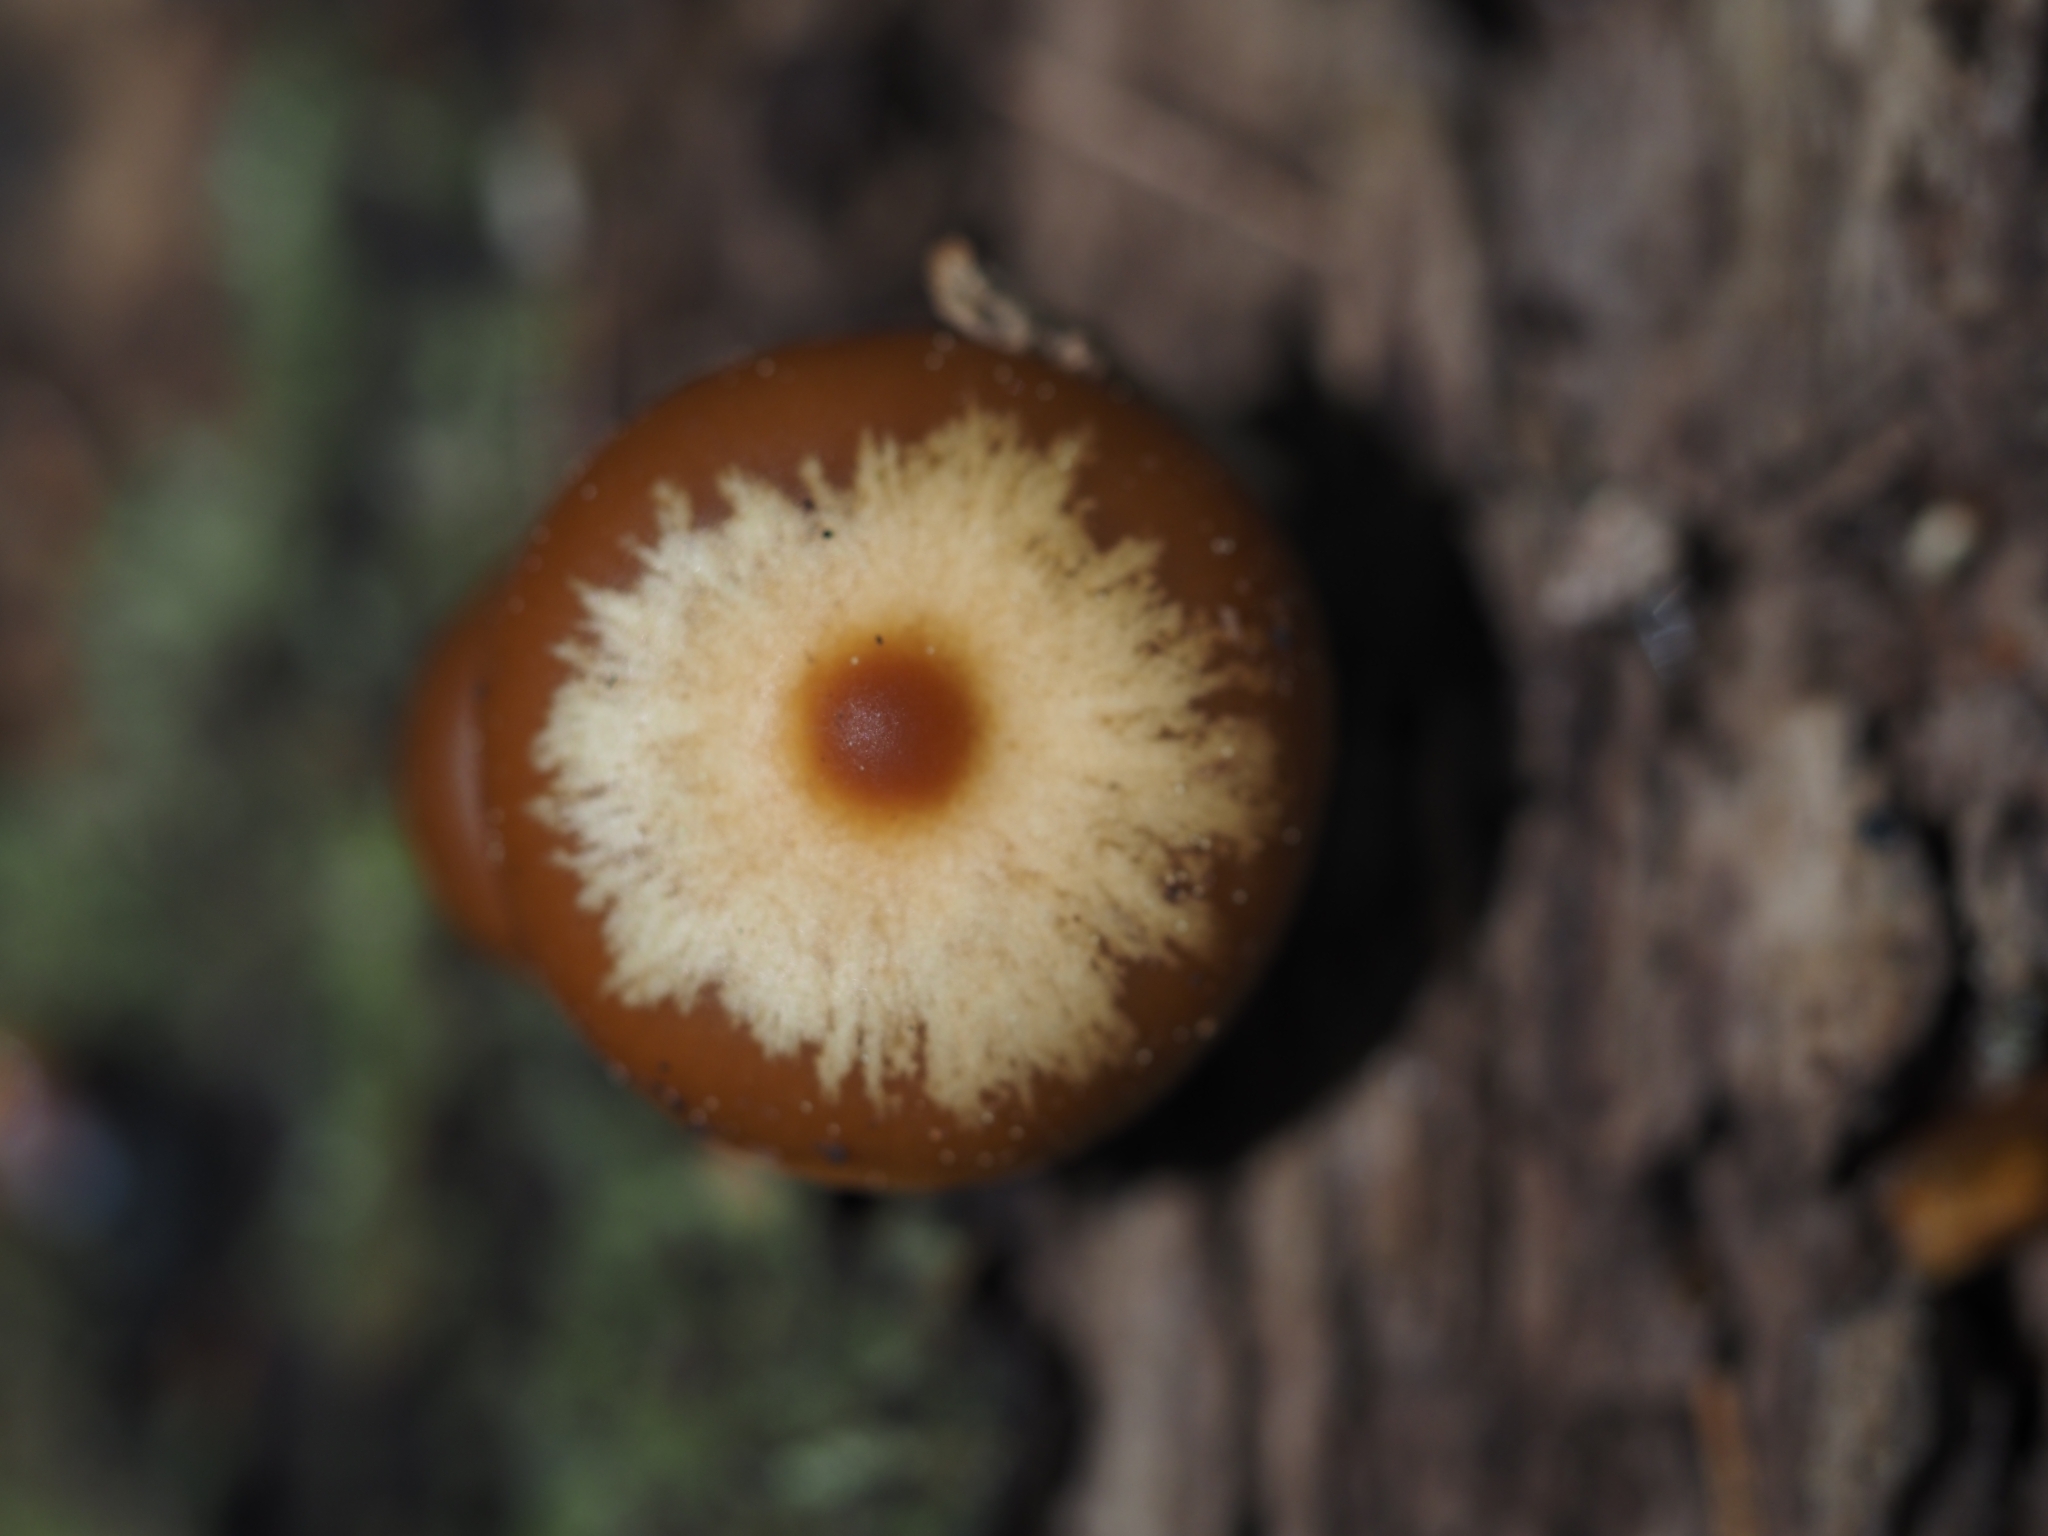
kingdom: Fungi
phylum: Basidiomycota
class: Agaricomycetes
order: Agaricales
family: Hymenogastraceae
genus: Galerina
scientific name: Galerina patagonica
